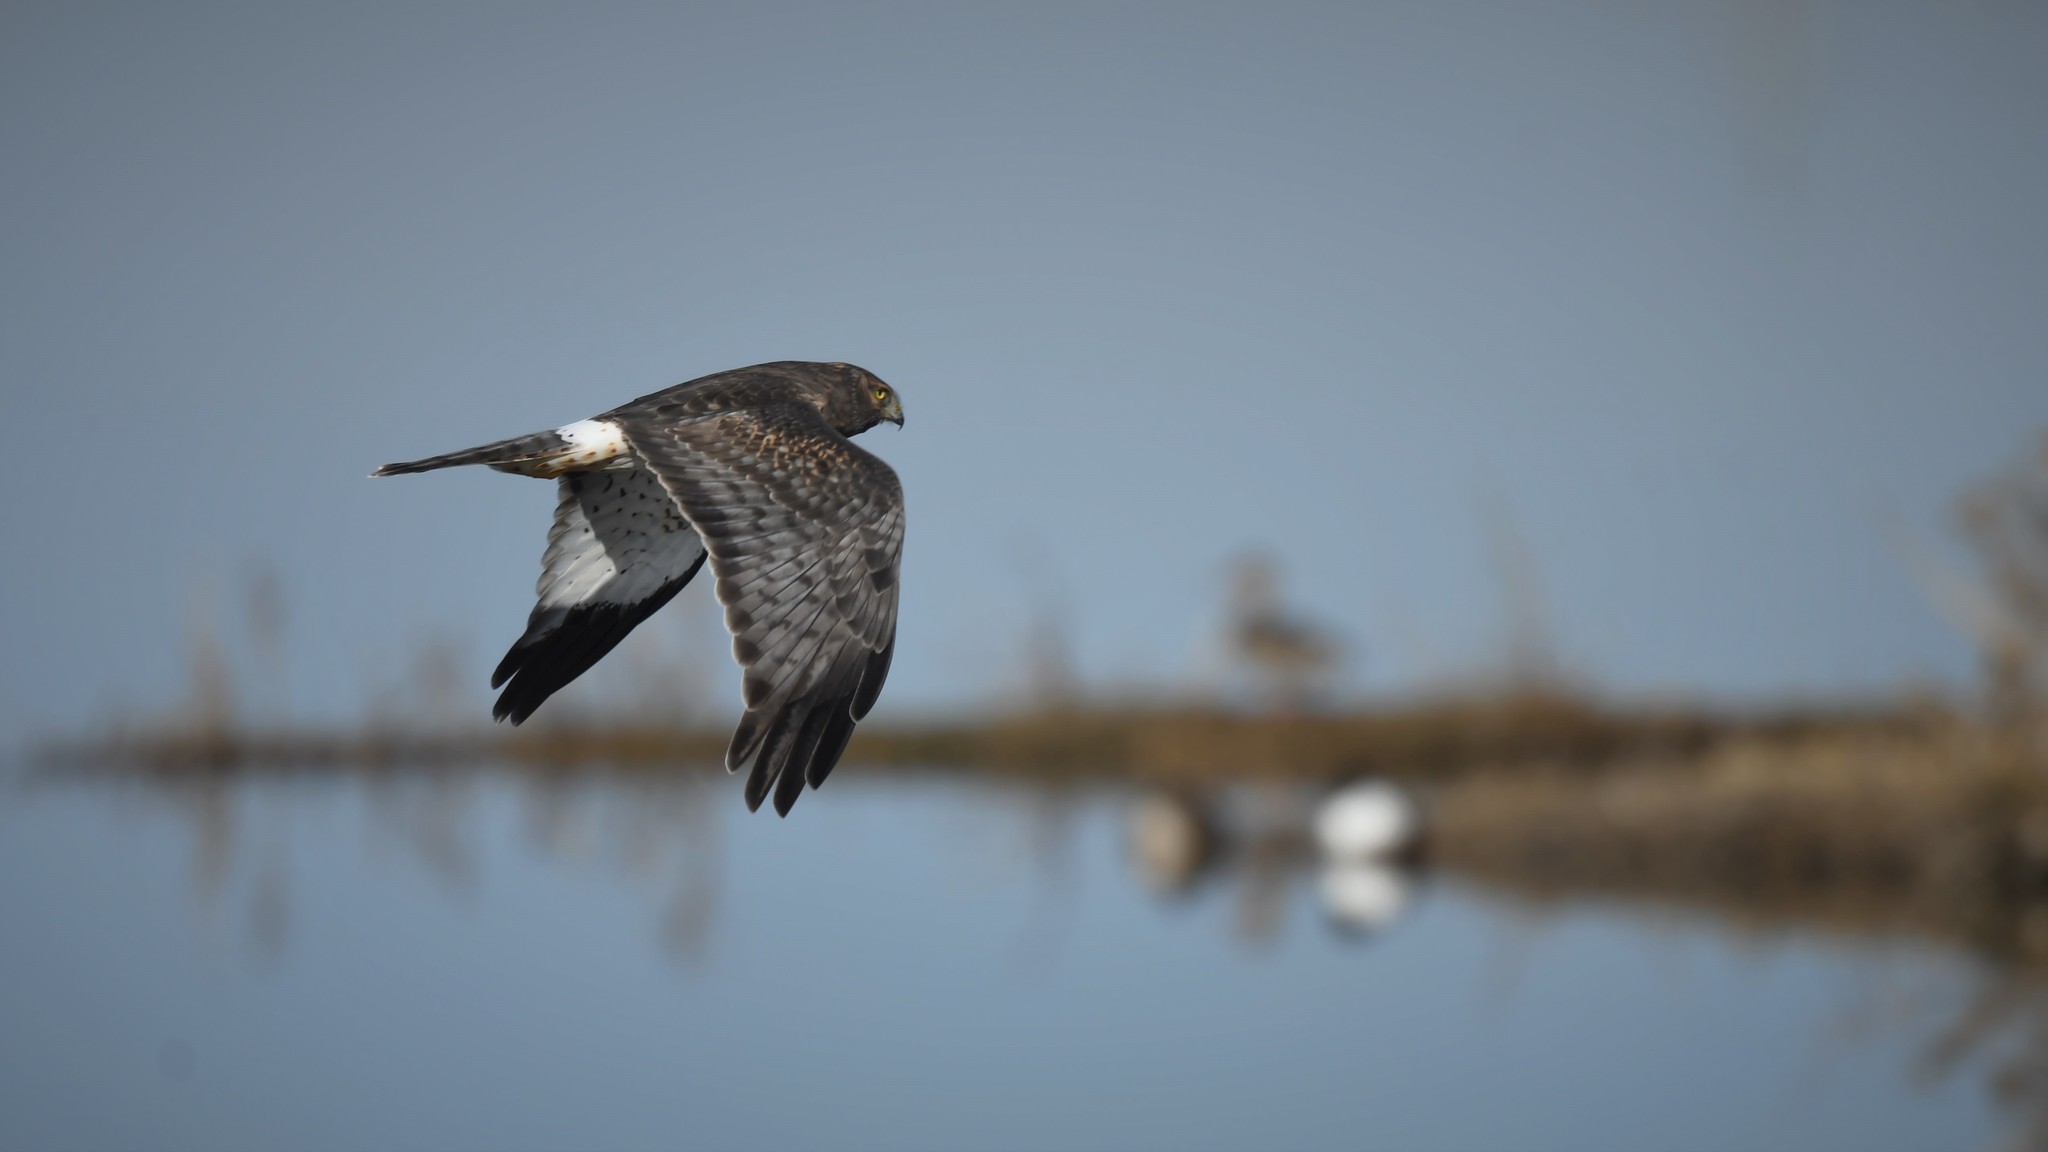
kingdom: Animalia
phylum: Chordata
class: Aves
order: Accipitriformes
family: Accipitridae
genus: Circus
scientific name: Circus cyaneus
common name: Hen harrier
